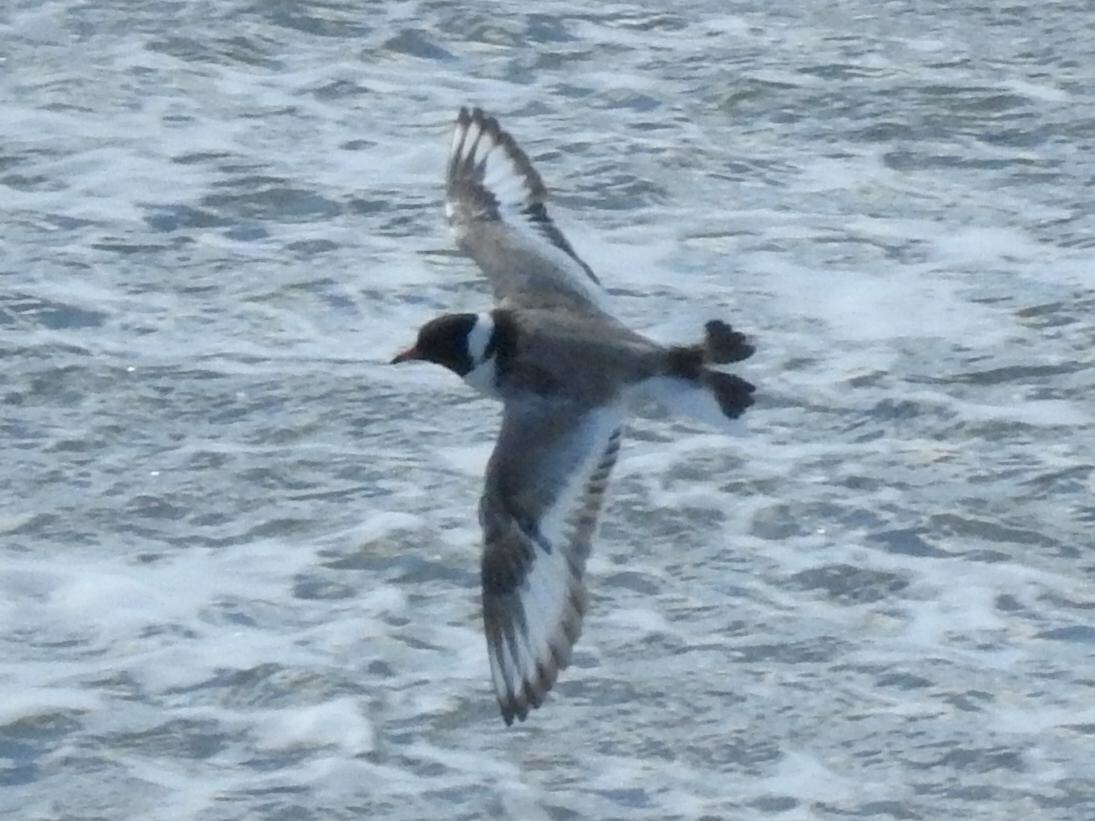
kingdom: Animalia
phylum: Chordata
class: Aves
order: Charadriiformes
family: Charadriidae
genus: Thinornis
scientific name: Thinornis cucullatus
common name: Hooded dotterel
